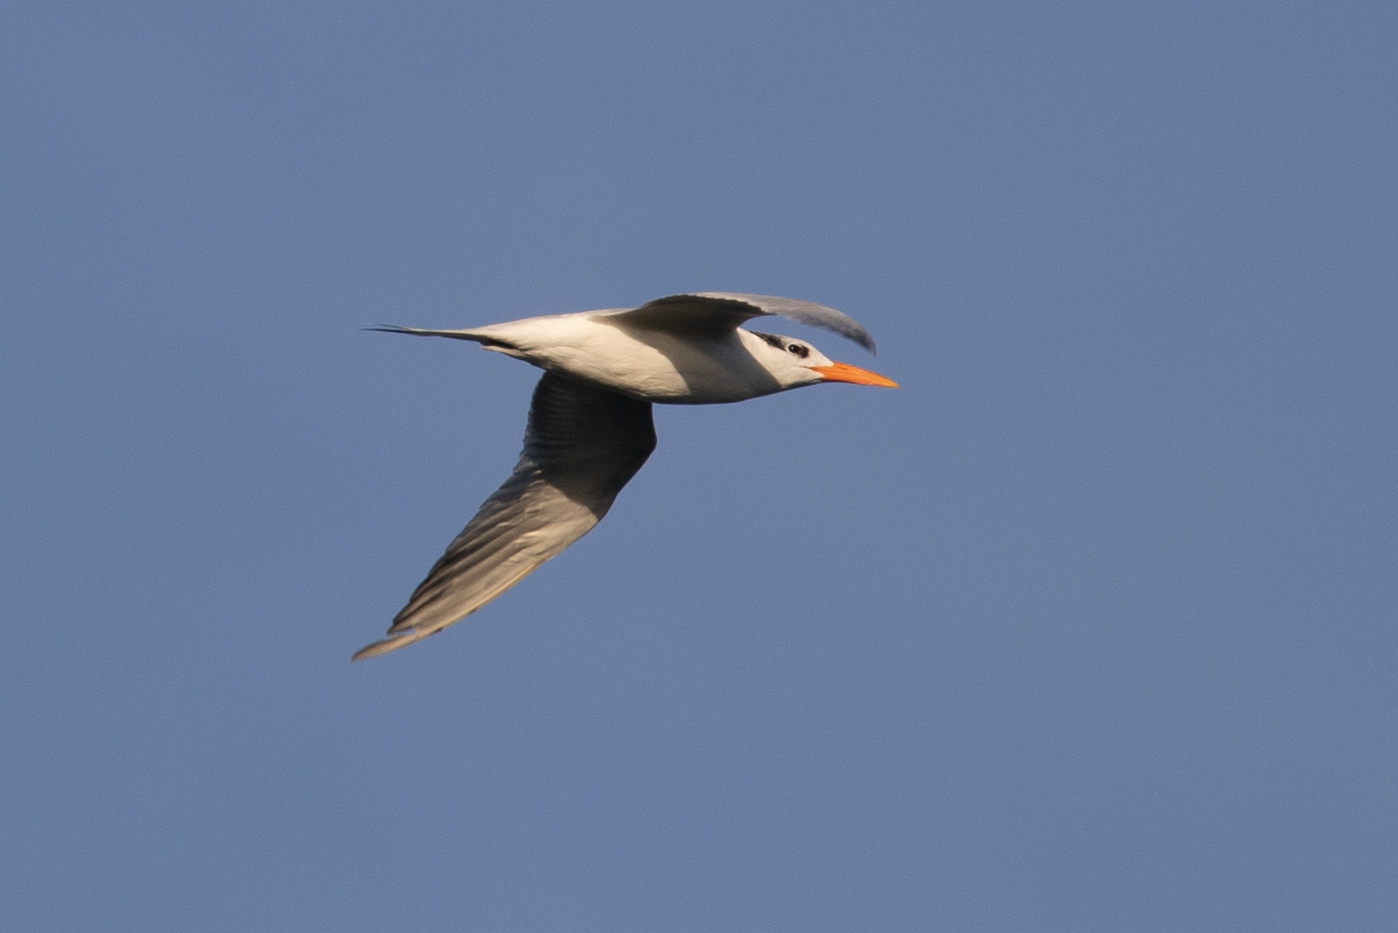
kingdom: Animalia
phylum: Chordata
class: Aves
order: Charadriiformes
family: Laridae
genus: Thalasseus
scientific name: Thalasseus maximus
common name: Royal tern
